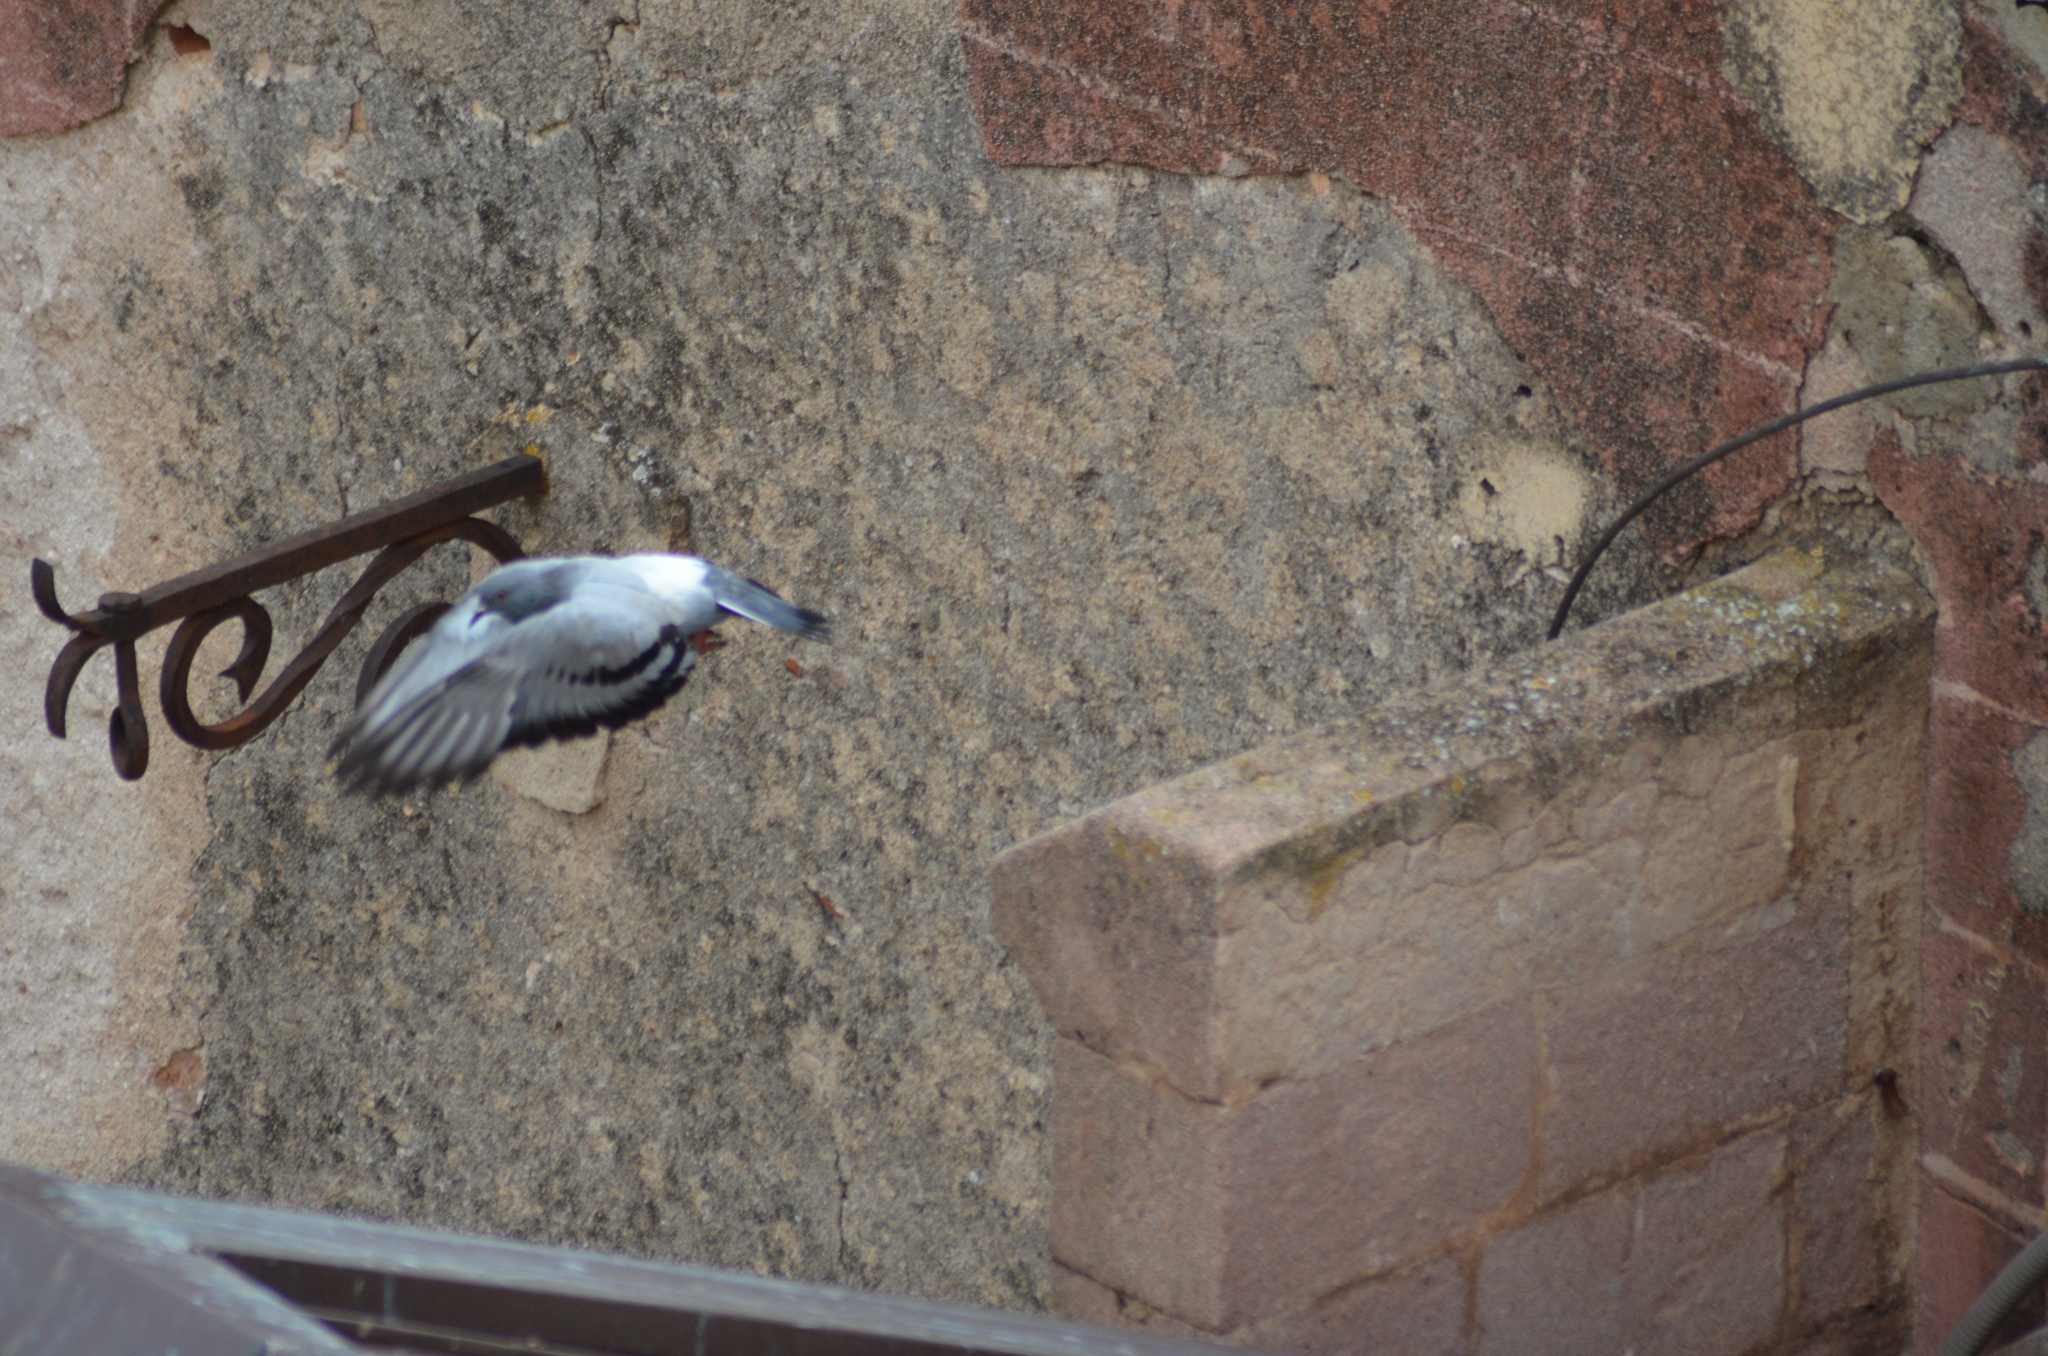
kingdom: Animalia
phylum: Chordata
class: Aves
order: Columbiformes
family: Columbidae
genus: Columba
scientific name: Columba livia
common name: Rock pigeon
